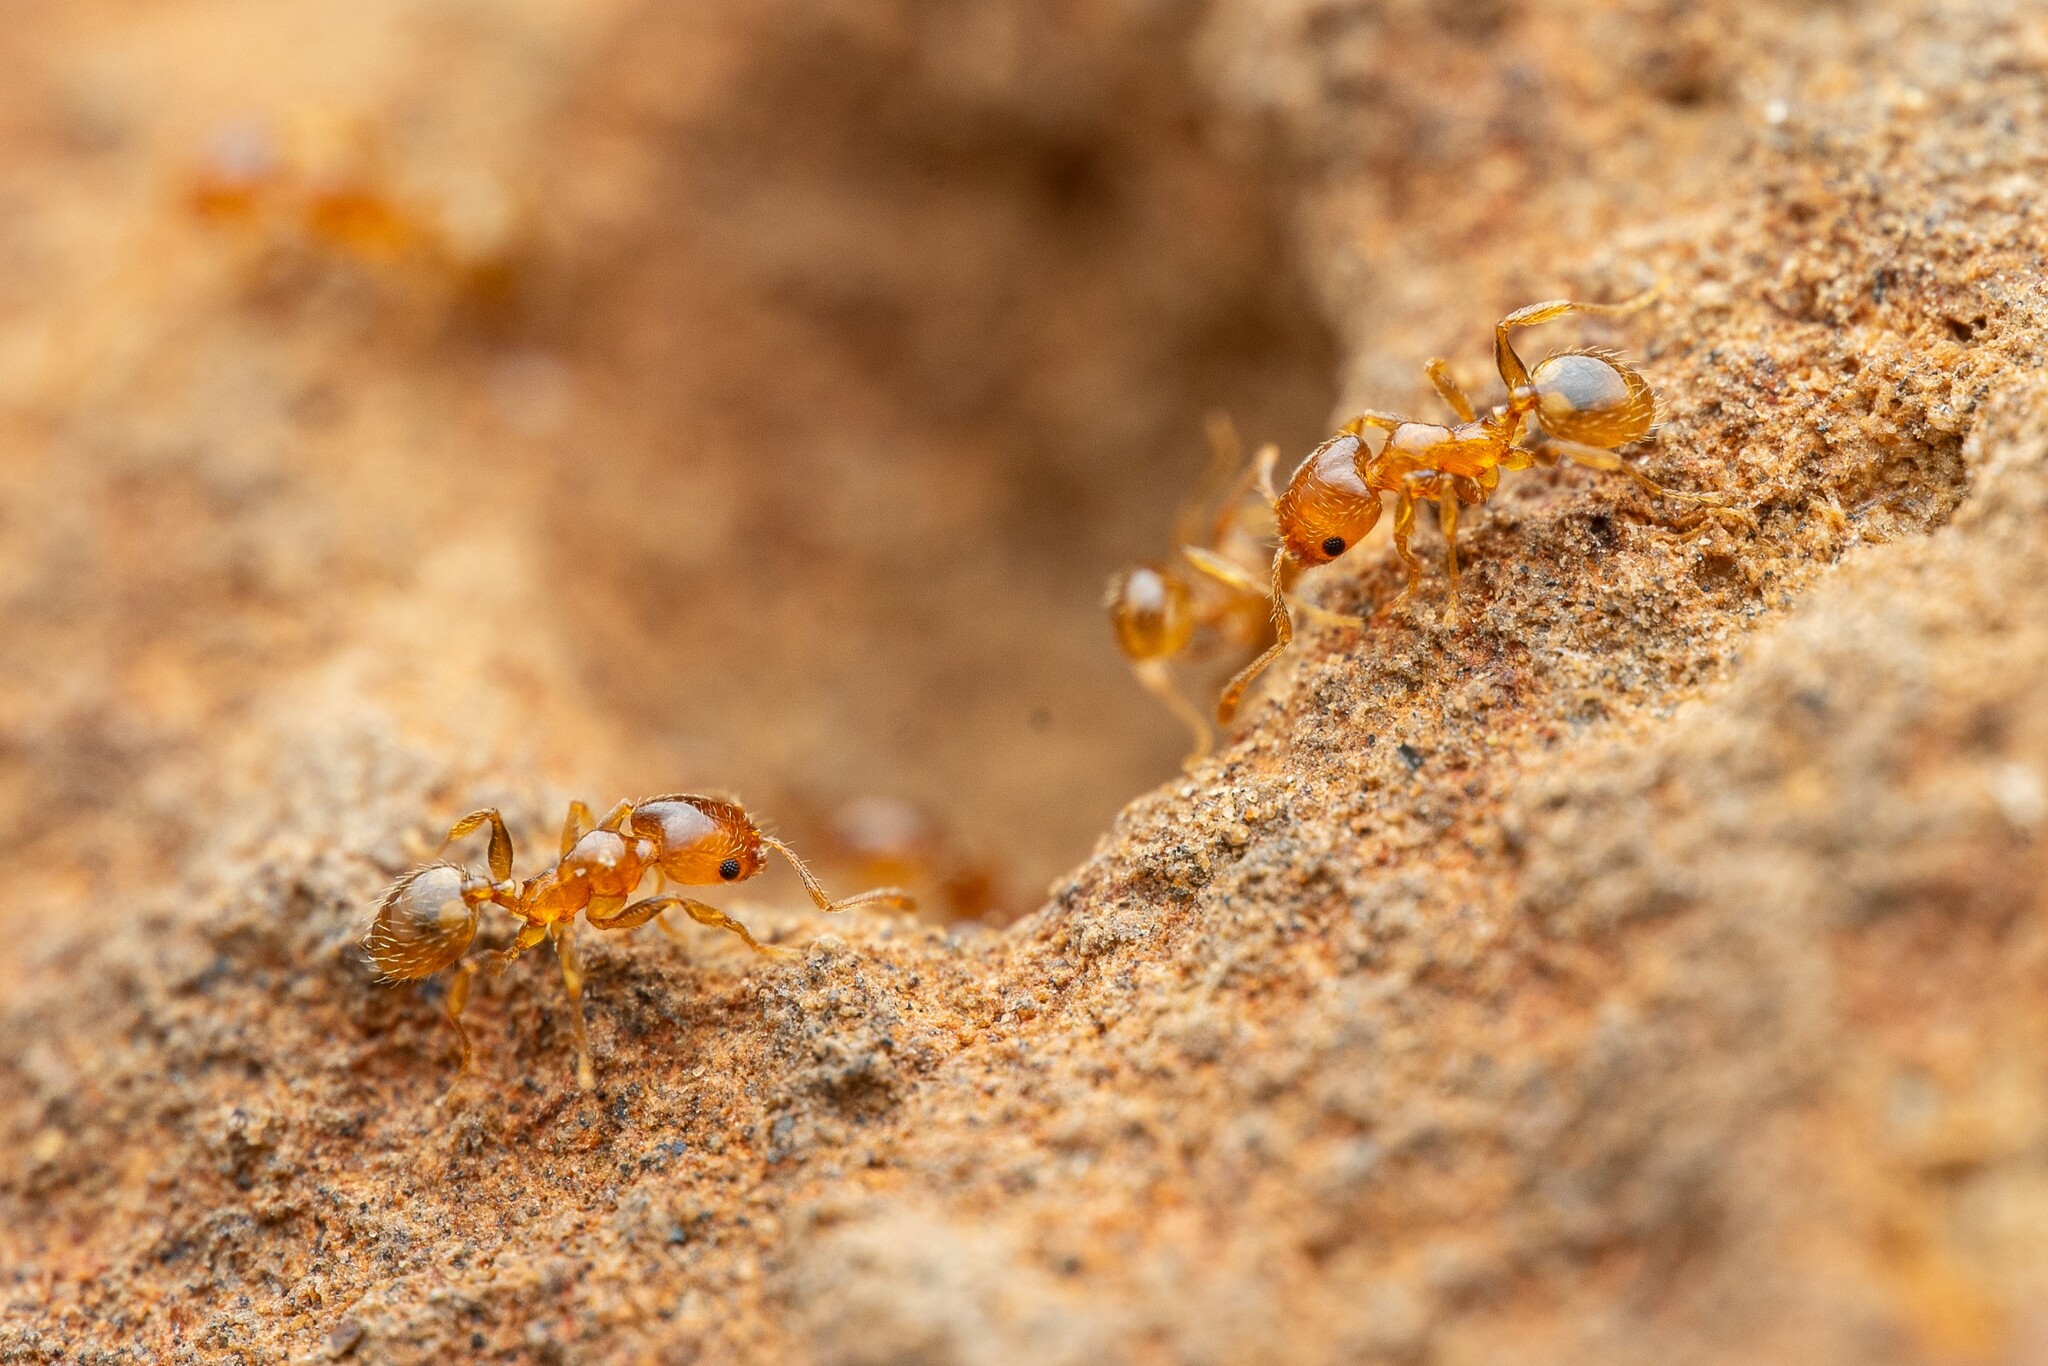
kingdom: Animalia
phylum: Arthropoda
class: Insecta
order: Hymenoptera
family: Formicidae
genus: Pheidole
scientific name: Pheidole
